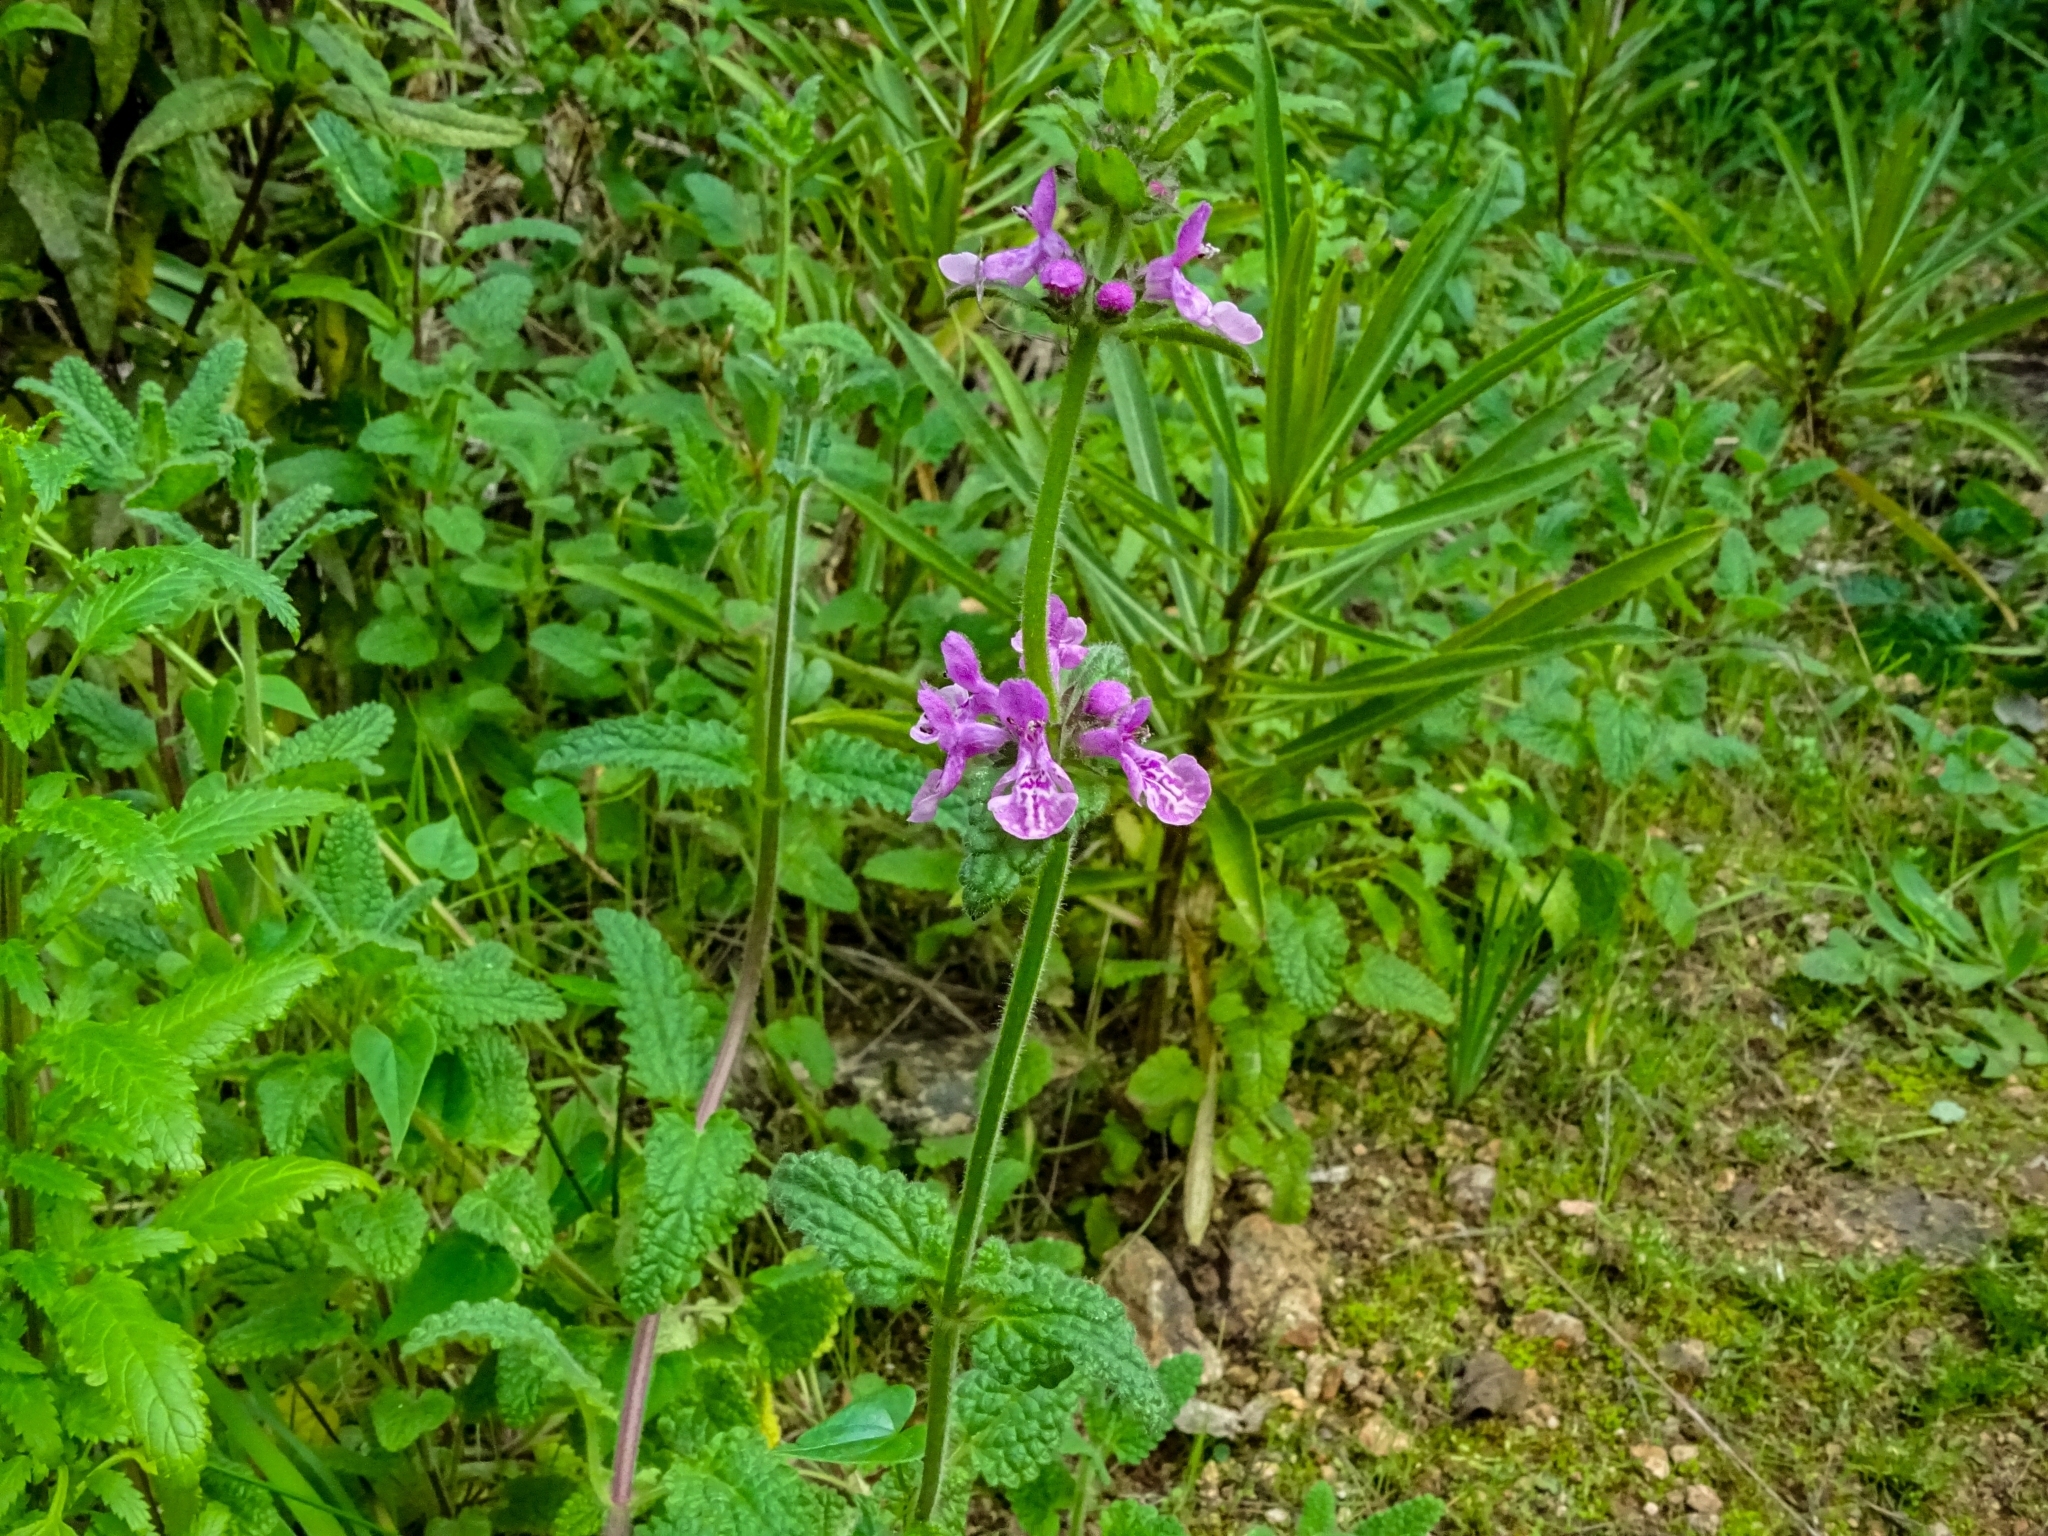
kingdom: Plantae
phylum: Tracheophyta
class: Magnoliopsida
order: Lamiales
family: Lamiaceae
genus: Stachys
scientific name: Stachys grandidentata
